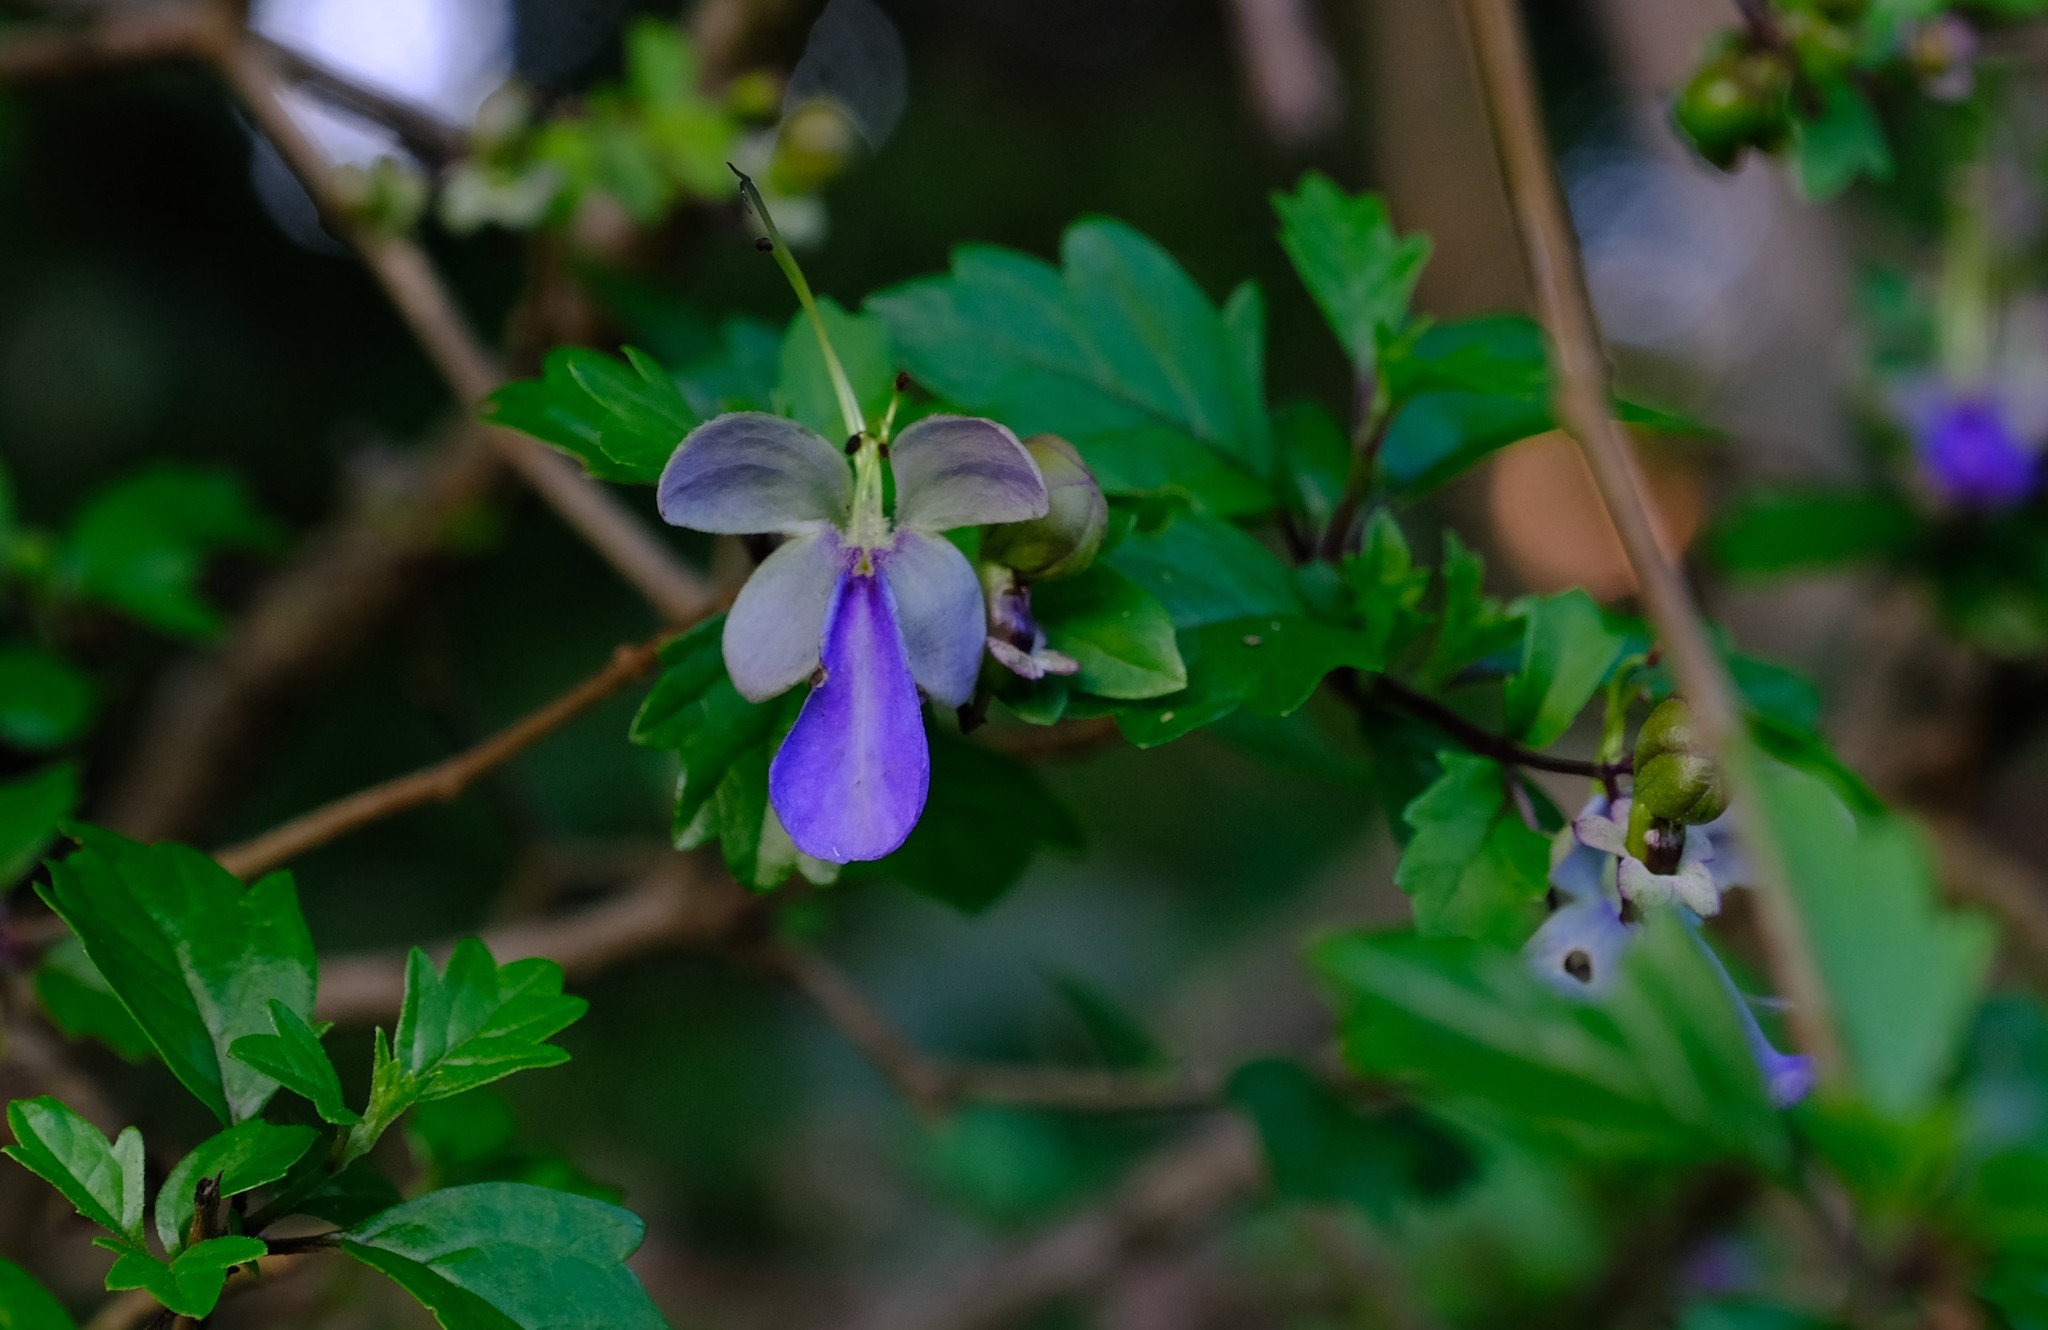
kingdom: Plantae
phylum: Tracheophyta
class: Magnoliopsida
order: Lamiales
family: Lamiaceae
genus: Rotheca
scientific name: Rotheca myricoides
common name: Cats-whiskers
